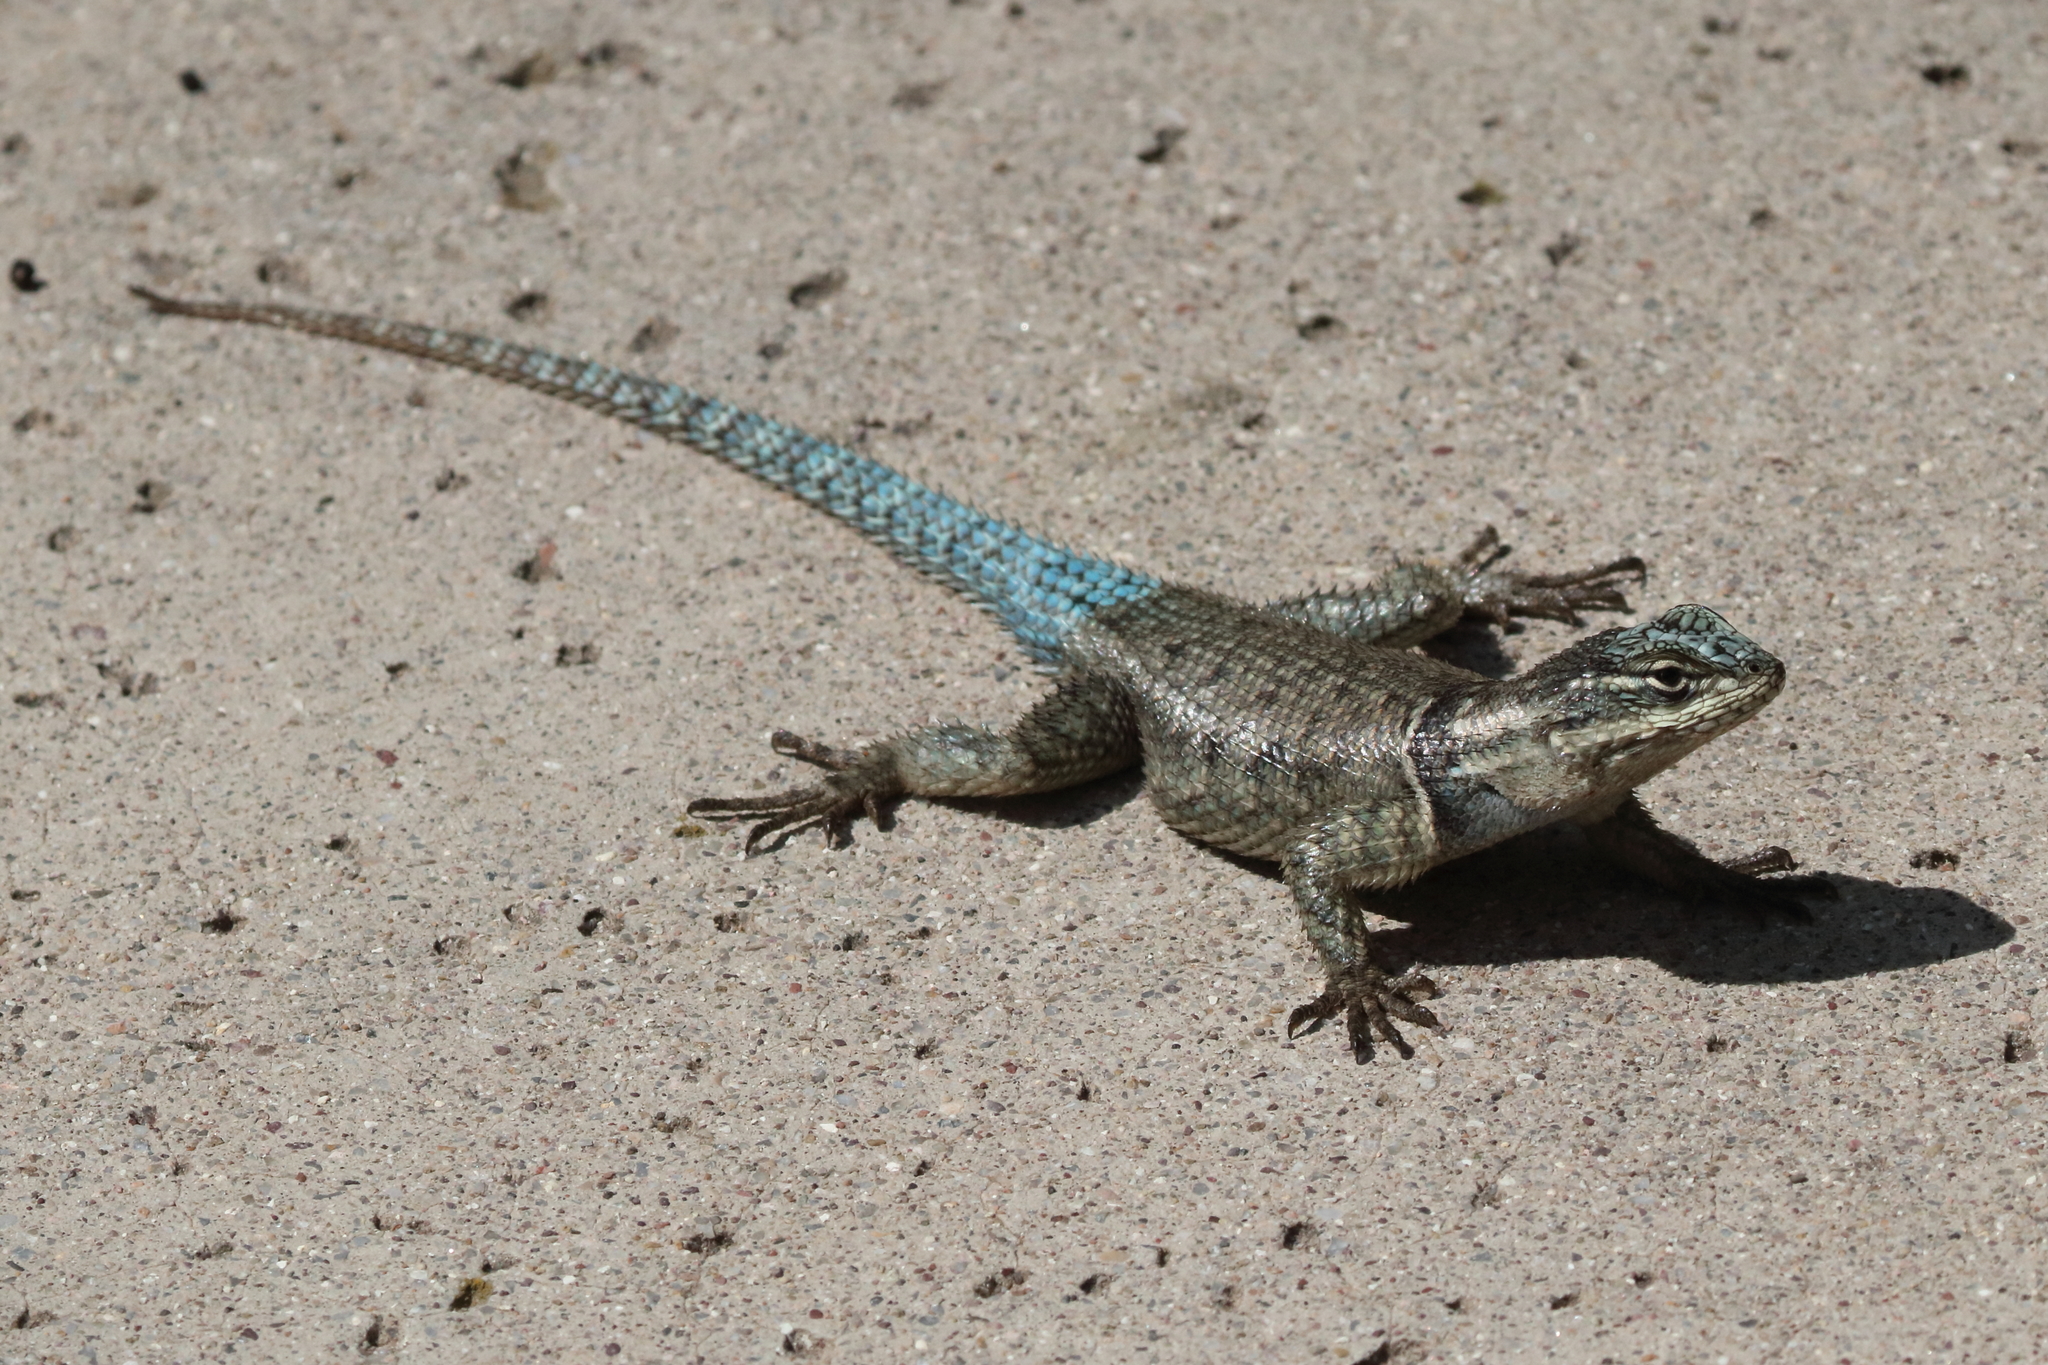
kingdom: Animalia
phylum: Chordata
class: Squamata
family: Phrynosomatidae
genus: Sceloporus
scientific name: Sceloporus jarrovii
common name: Yarrow's spiny lizard
